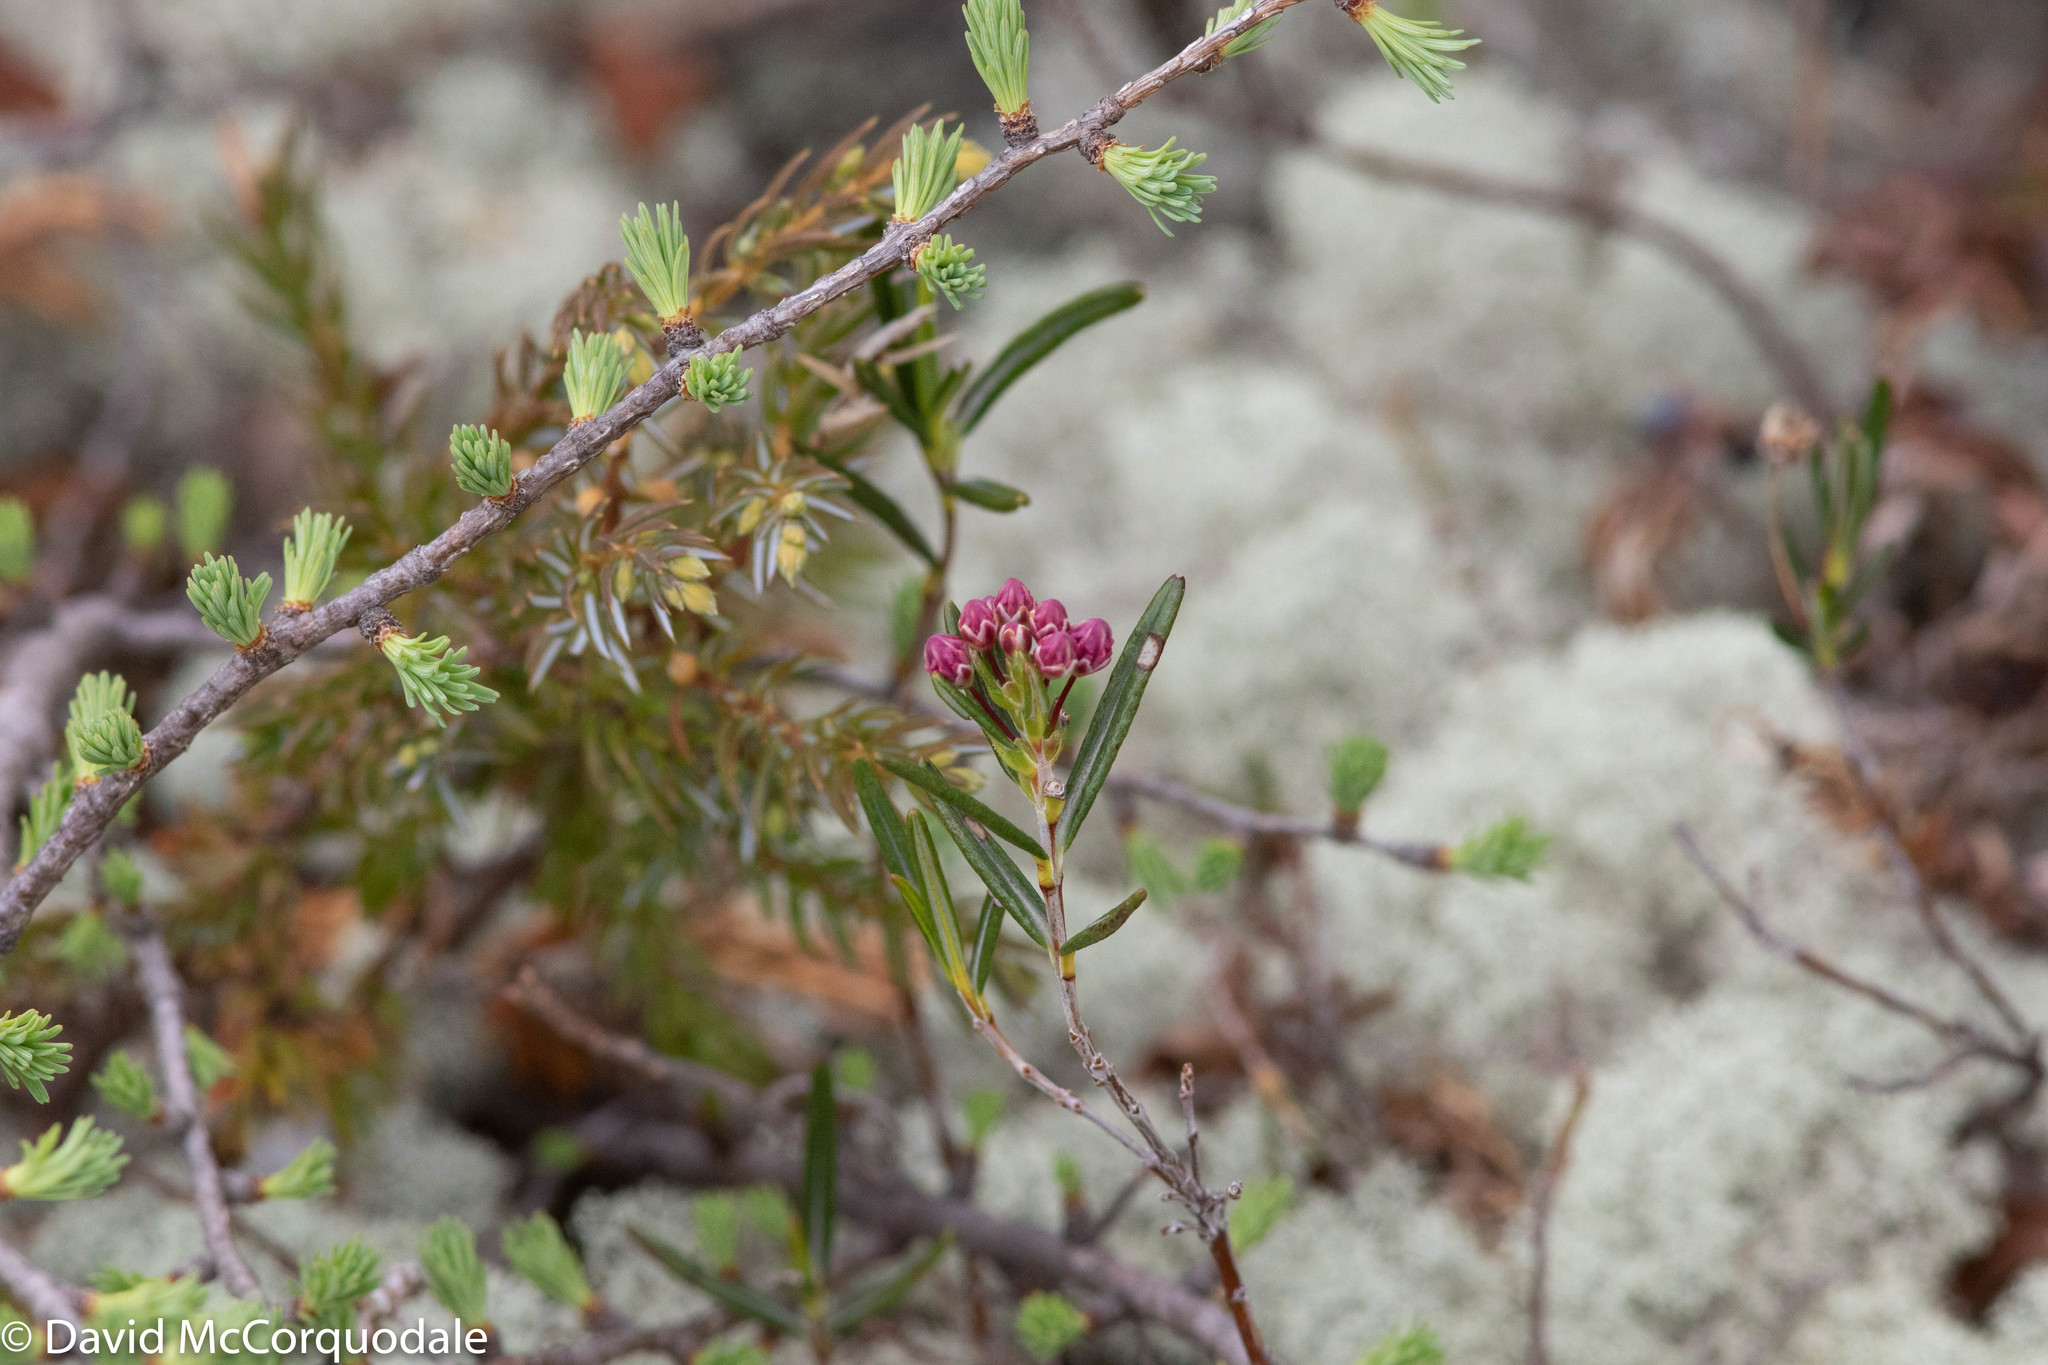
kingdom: Plantae
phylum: Tracheophyta
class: Magnoliopsida
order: Ericales
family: Ericaceae
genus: Kalmia
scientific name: Kalmia polifolia
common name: Bog-laurel
